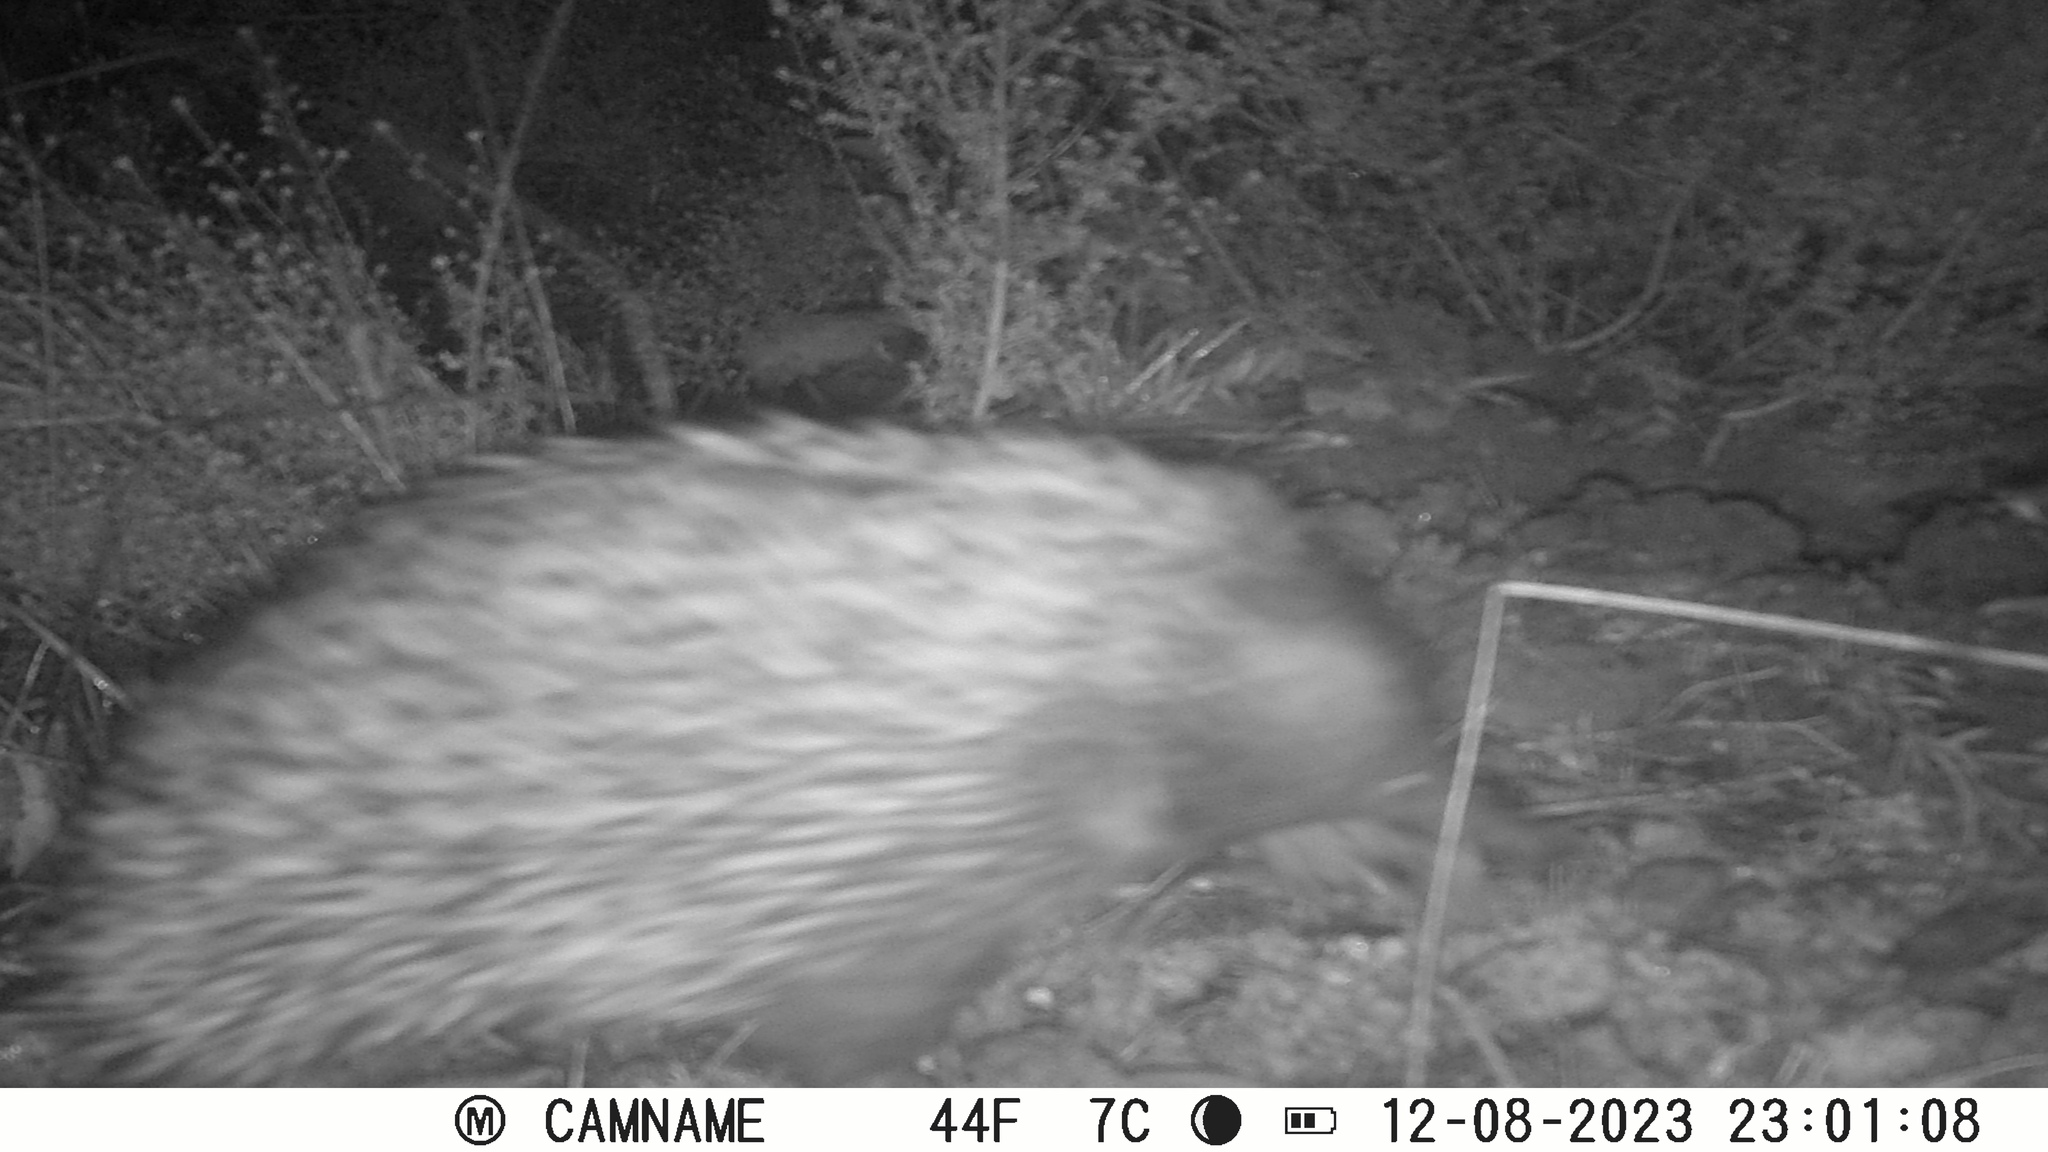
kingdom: Animalia
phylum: Chordata
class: Mammalia
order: Monotremata
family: Tachyglossidae
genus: Tachyglossus
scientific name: Tachyglossus aculeatus
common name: Short-beaked echidna
